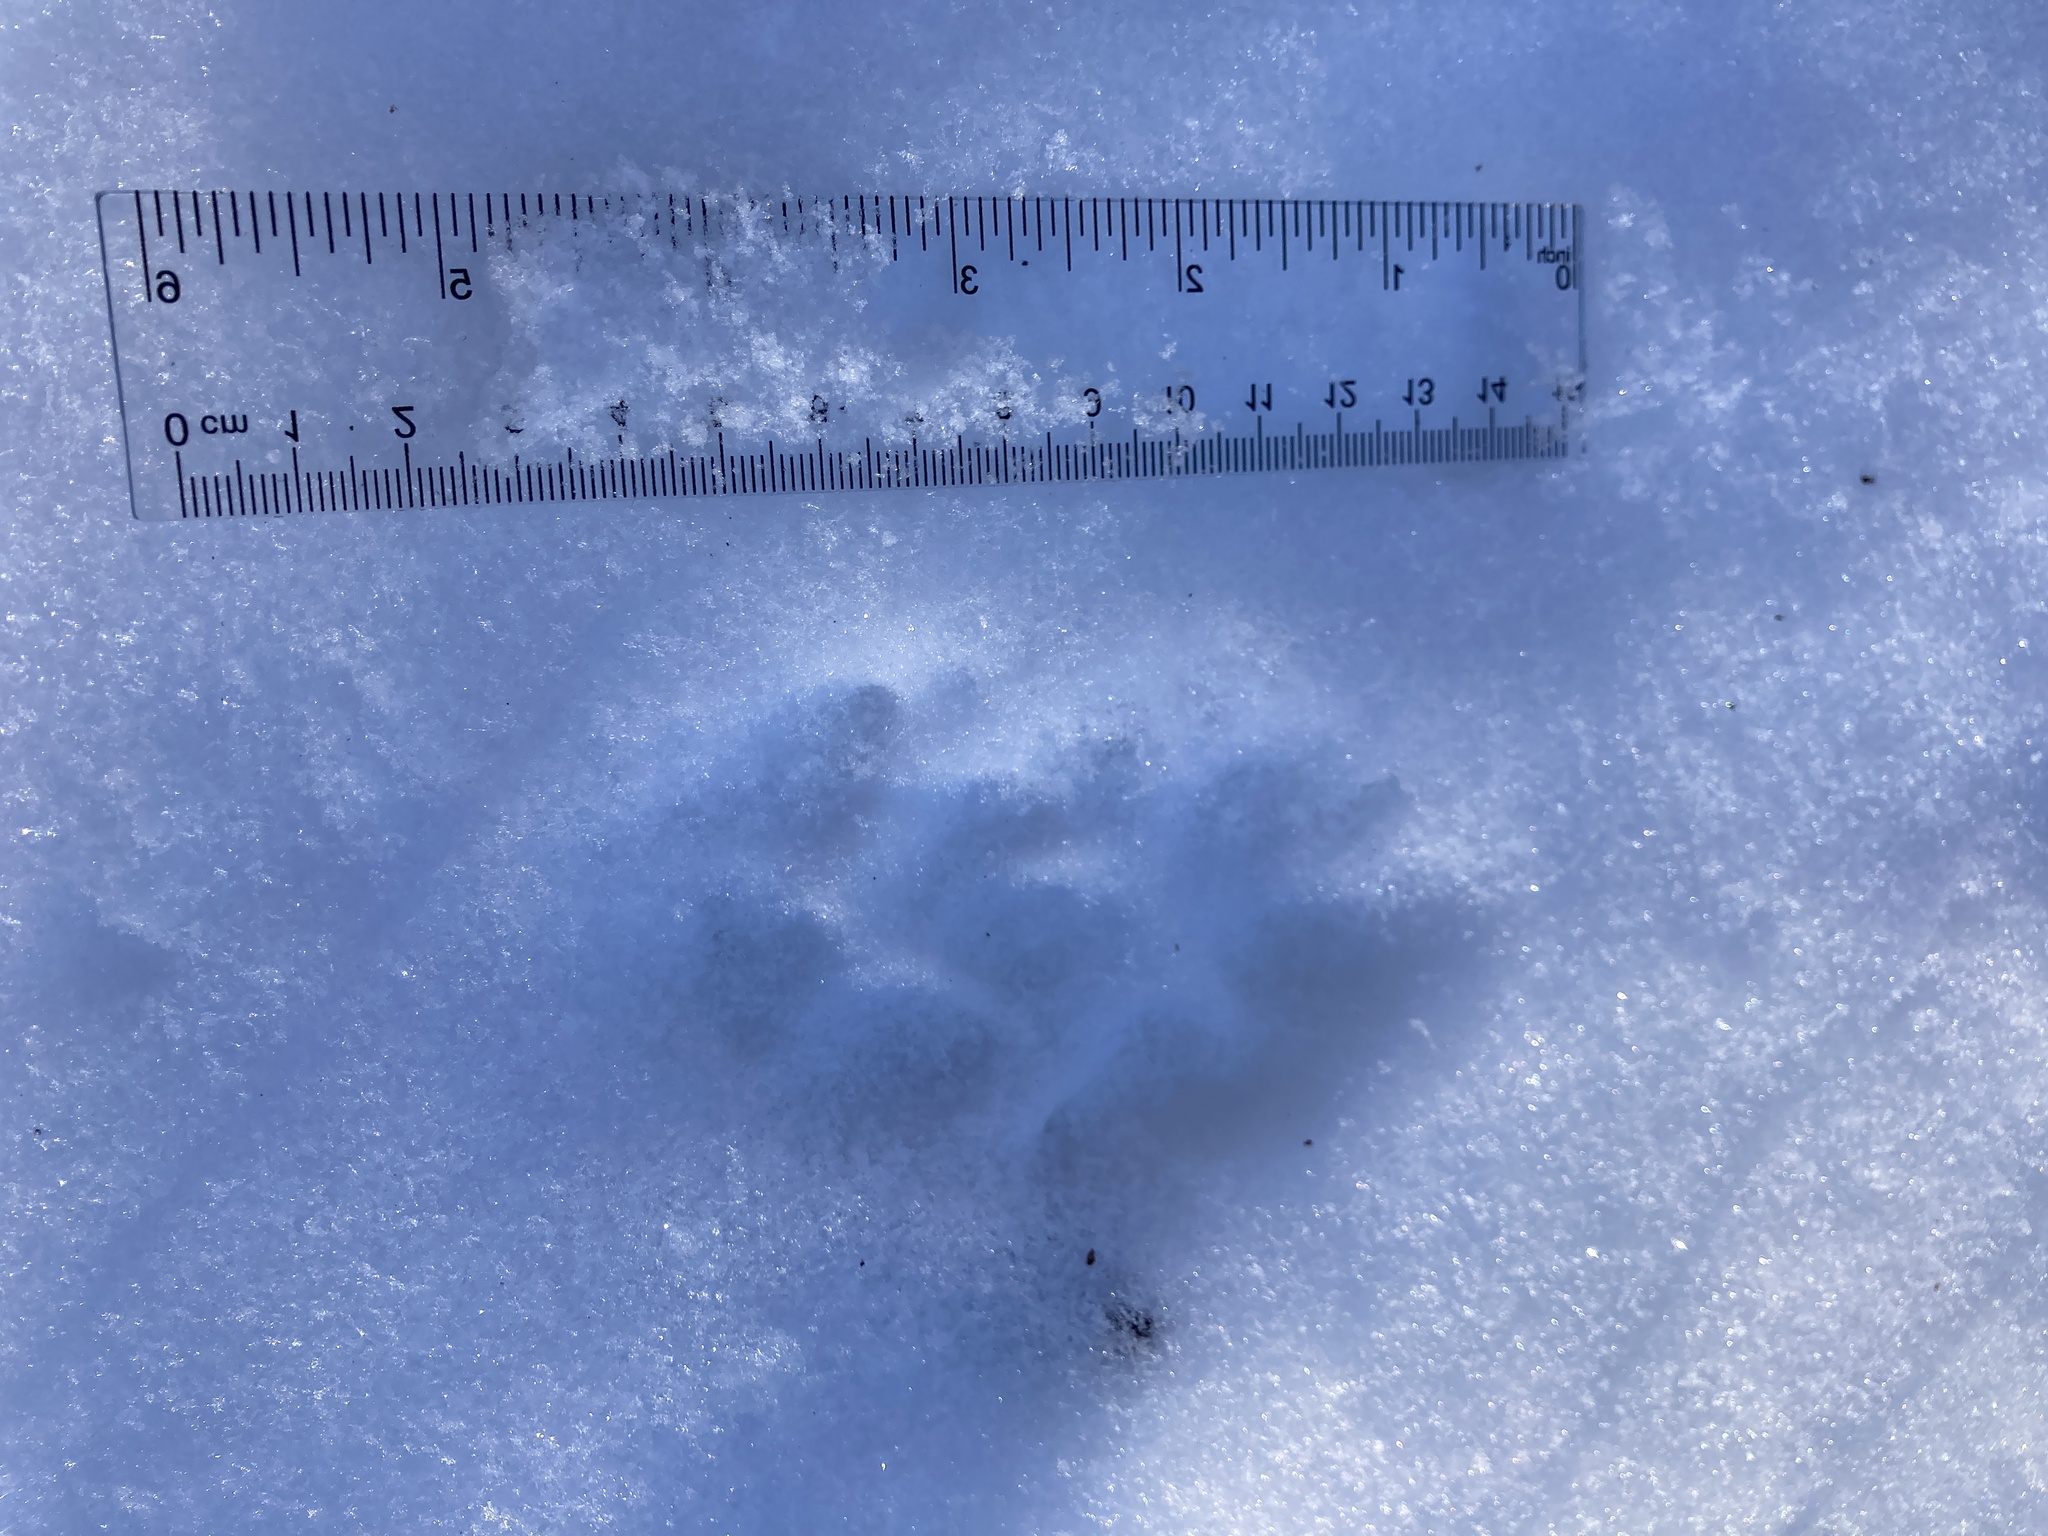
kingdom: Animalia
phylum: Chordata
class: Mammalia
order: Carnivora
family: Canidae
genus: Urocyon
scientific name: Urocyon cinereoargenteus
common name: Gray fox
